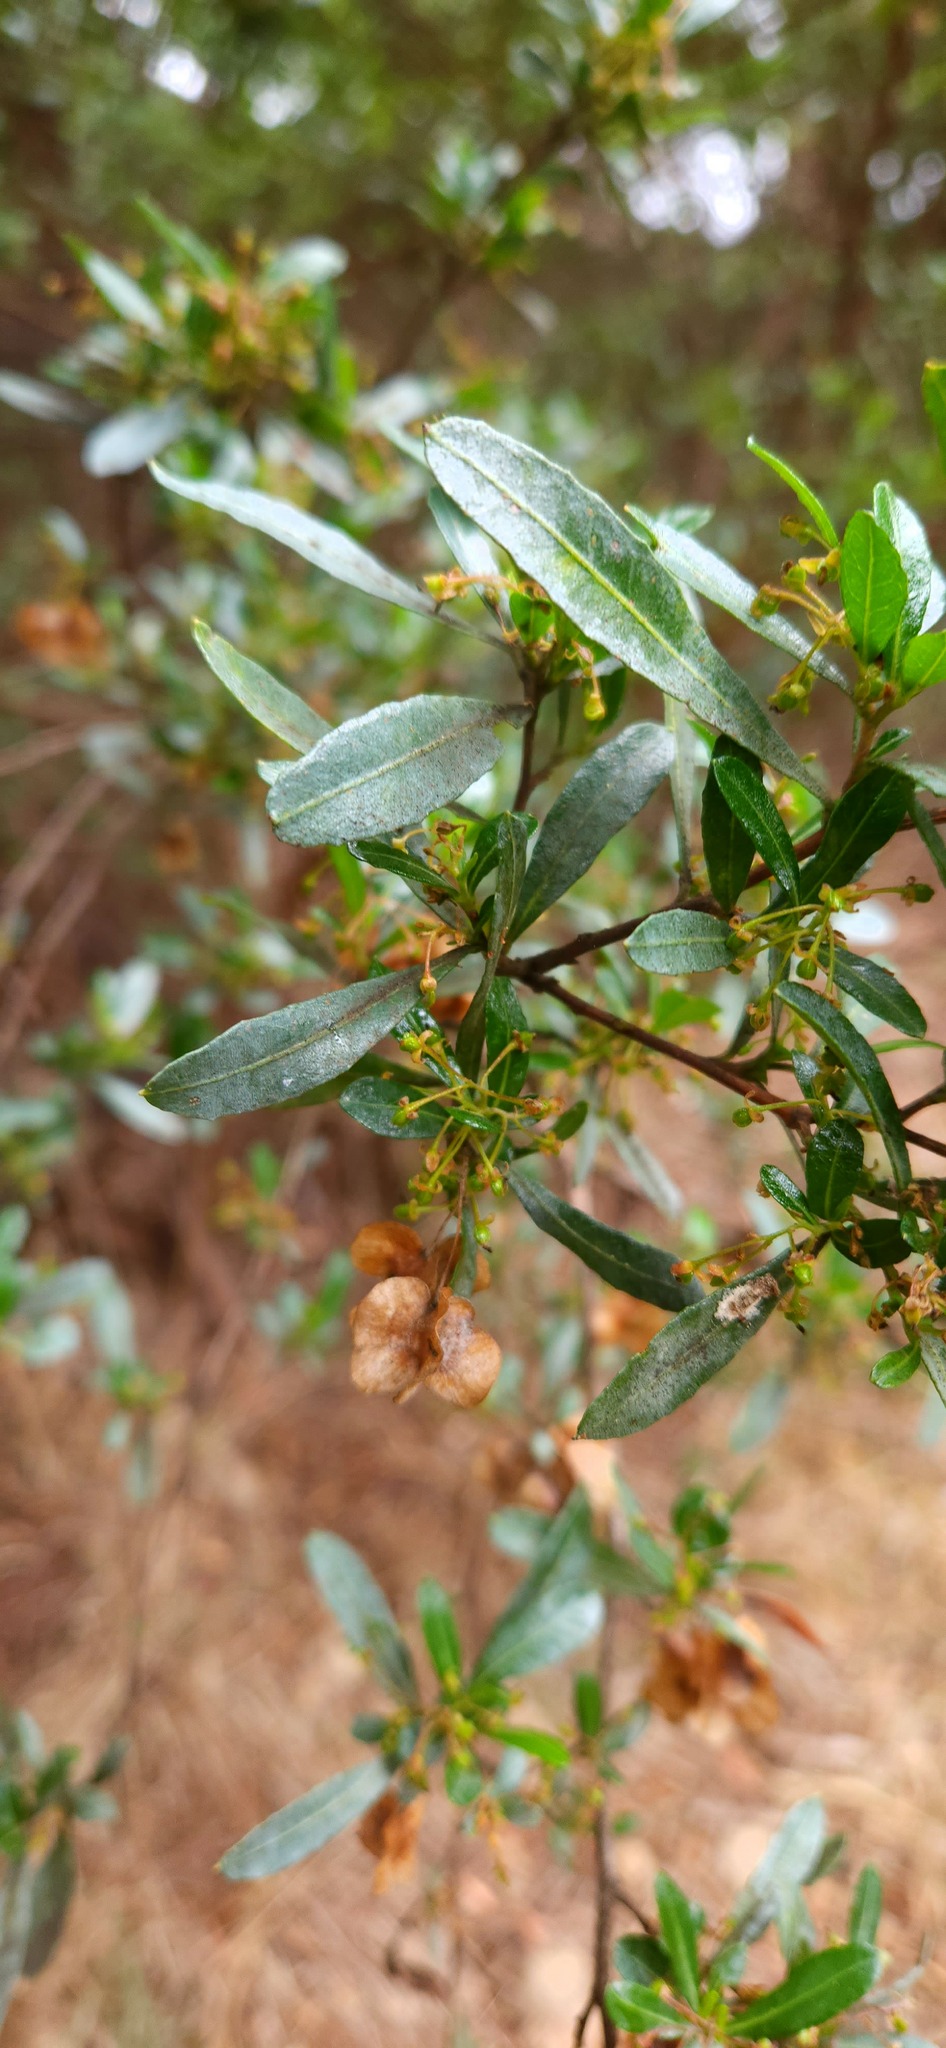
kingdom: Plantae
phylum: Tracheophyta
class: Magnoliopsida
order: Sapindales
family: Sapindaceae
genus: Dodonaea
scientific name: Dodonaea viscosa
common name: Hopbush
